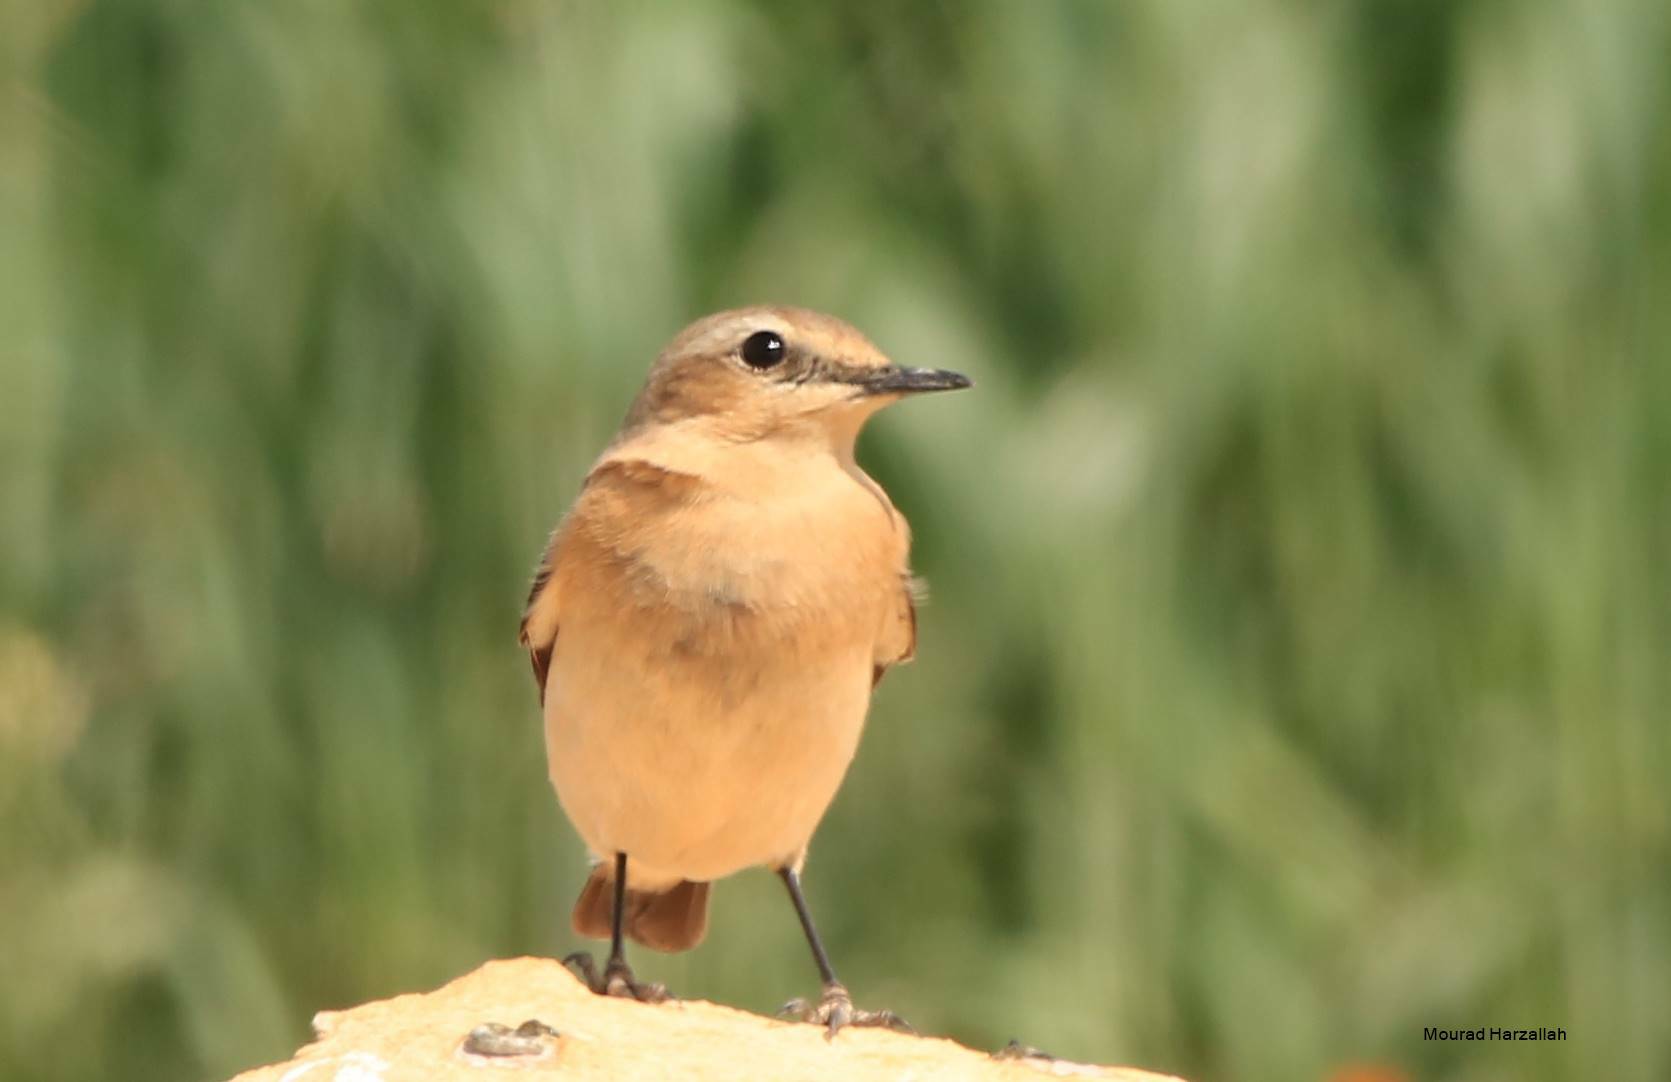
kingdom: Animalia
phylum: Chordata
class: Aves
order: Passeriformes
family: Muscicapidae
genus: Oenanthe
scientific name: Oenanthe oenanthe
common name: Northern wheatear
